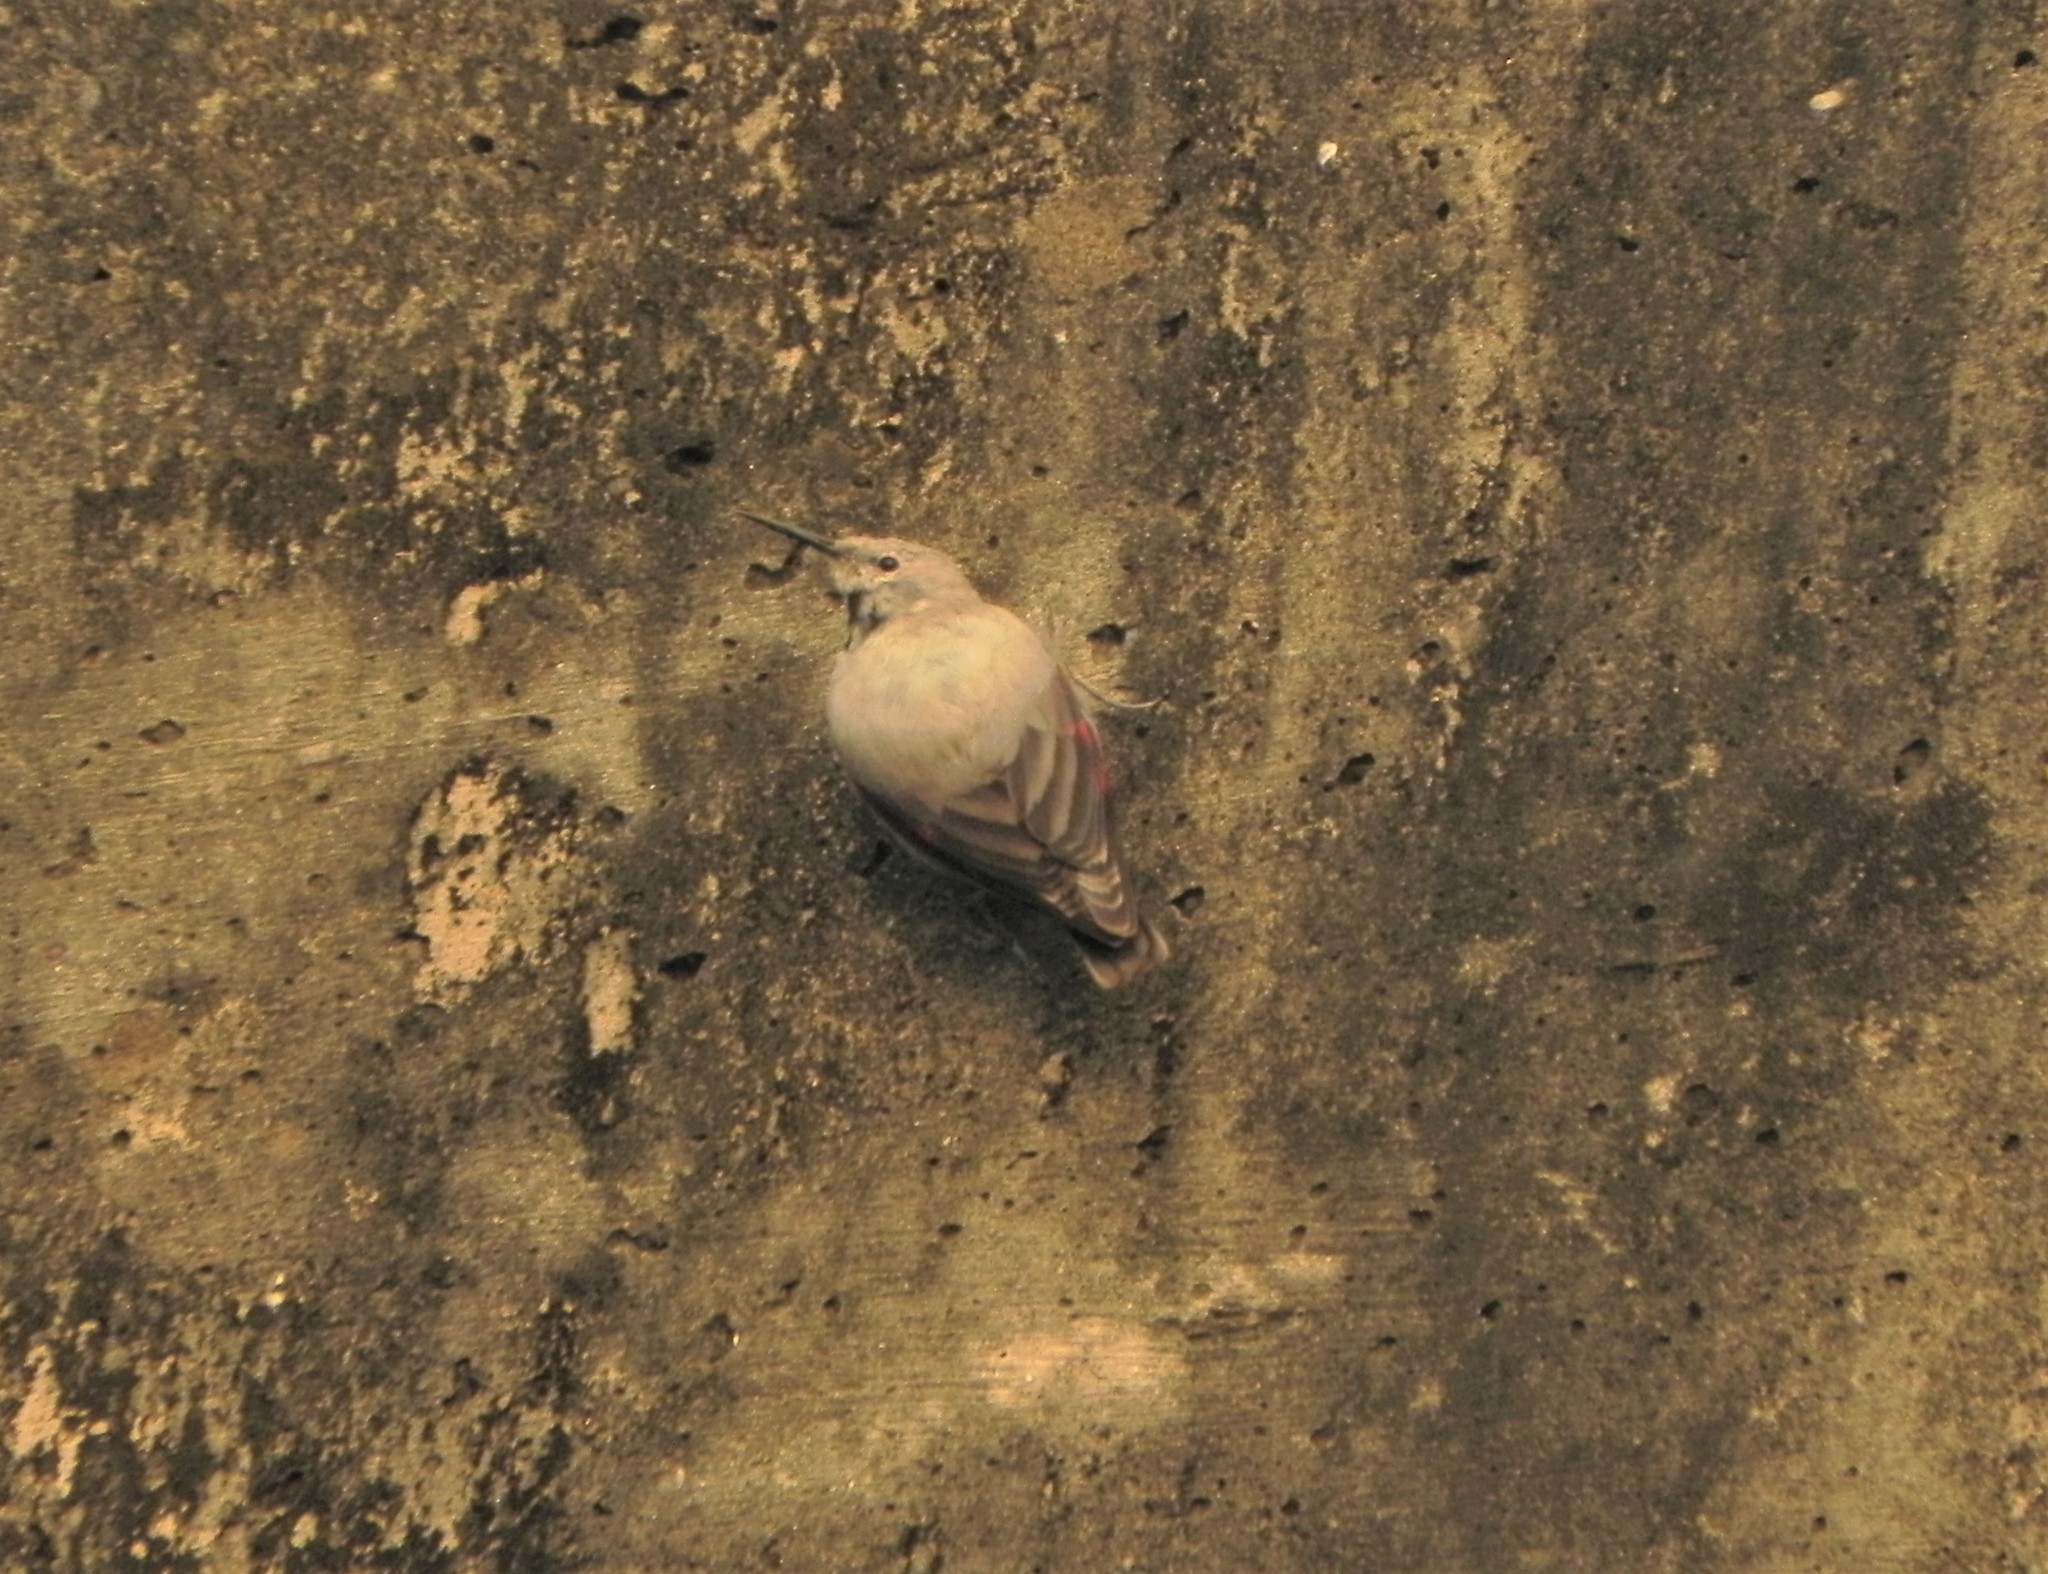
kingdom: Animalia
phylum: Chordata
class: Aves
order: Passeriformes
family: Tichodromidae
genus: Tichodroma
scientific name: Tichodroma muraria
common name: Wallcreeper
